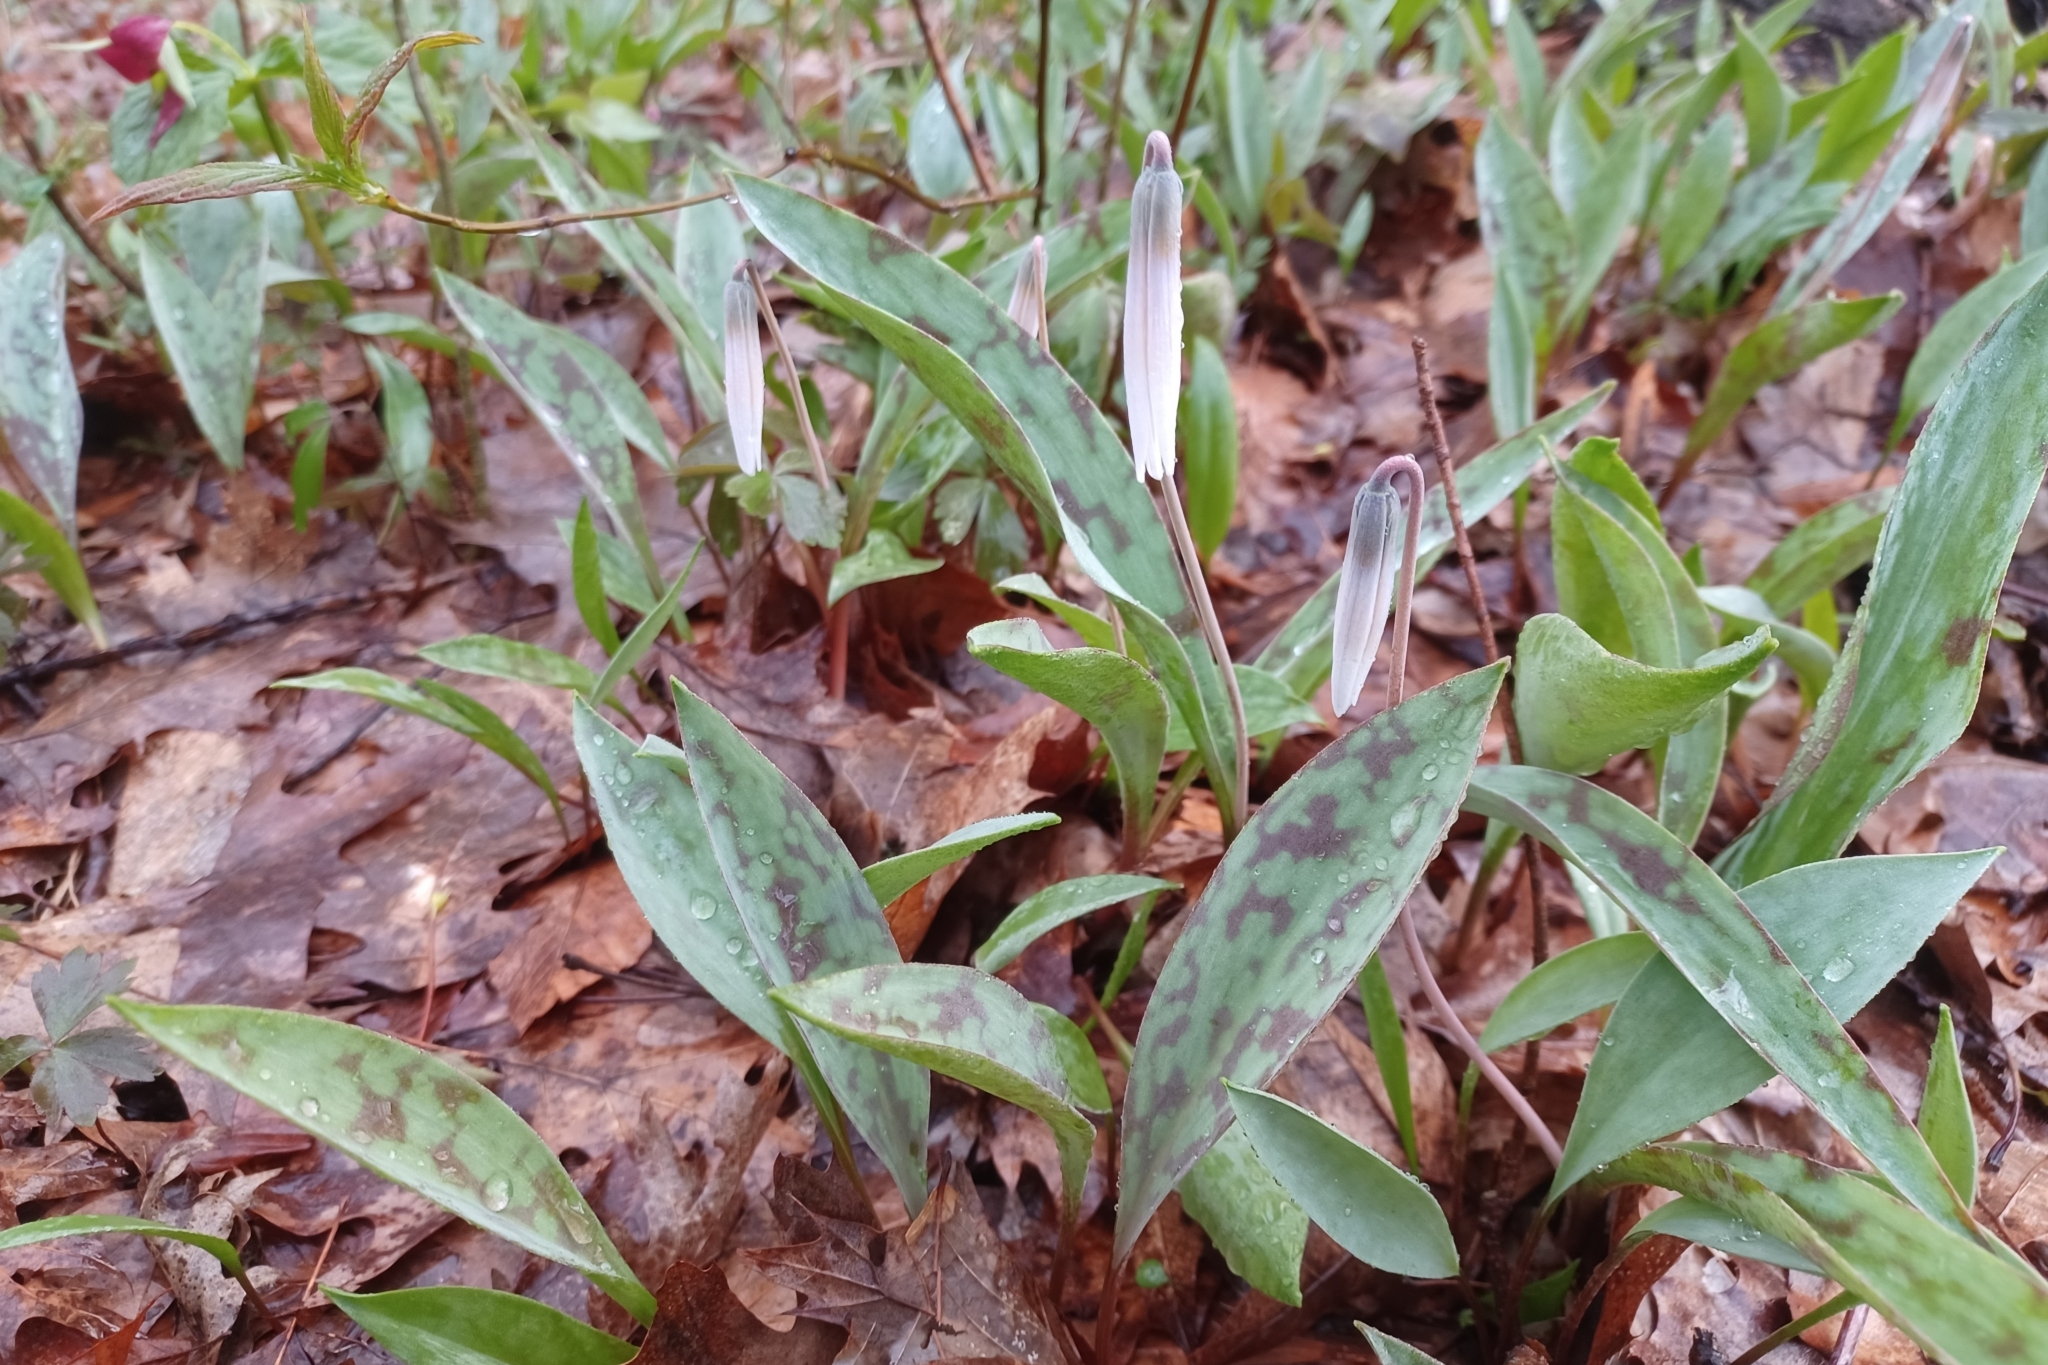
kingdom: Plantae
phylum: Tracheophyta
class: Liliopsida
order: Liliales
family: Liliaceae
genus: Erythronium
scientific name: Erythronium albidum
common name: White trout-lily
